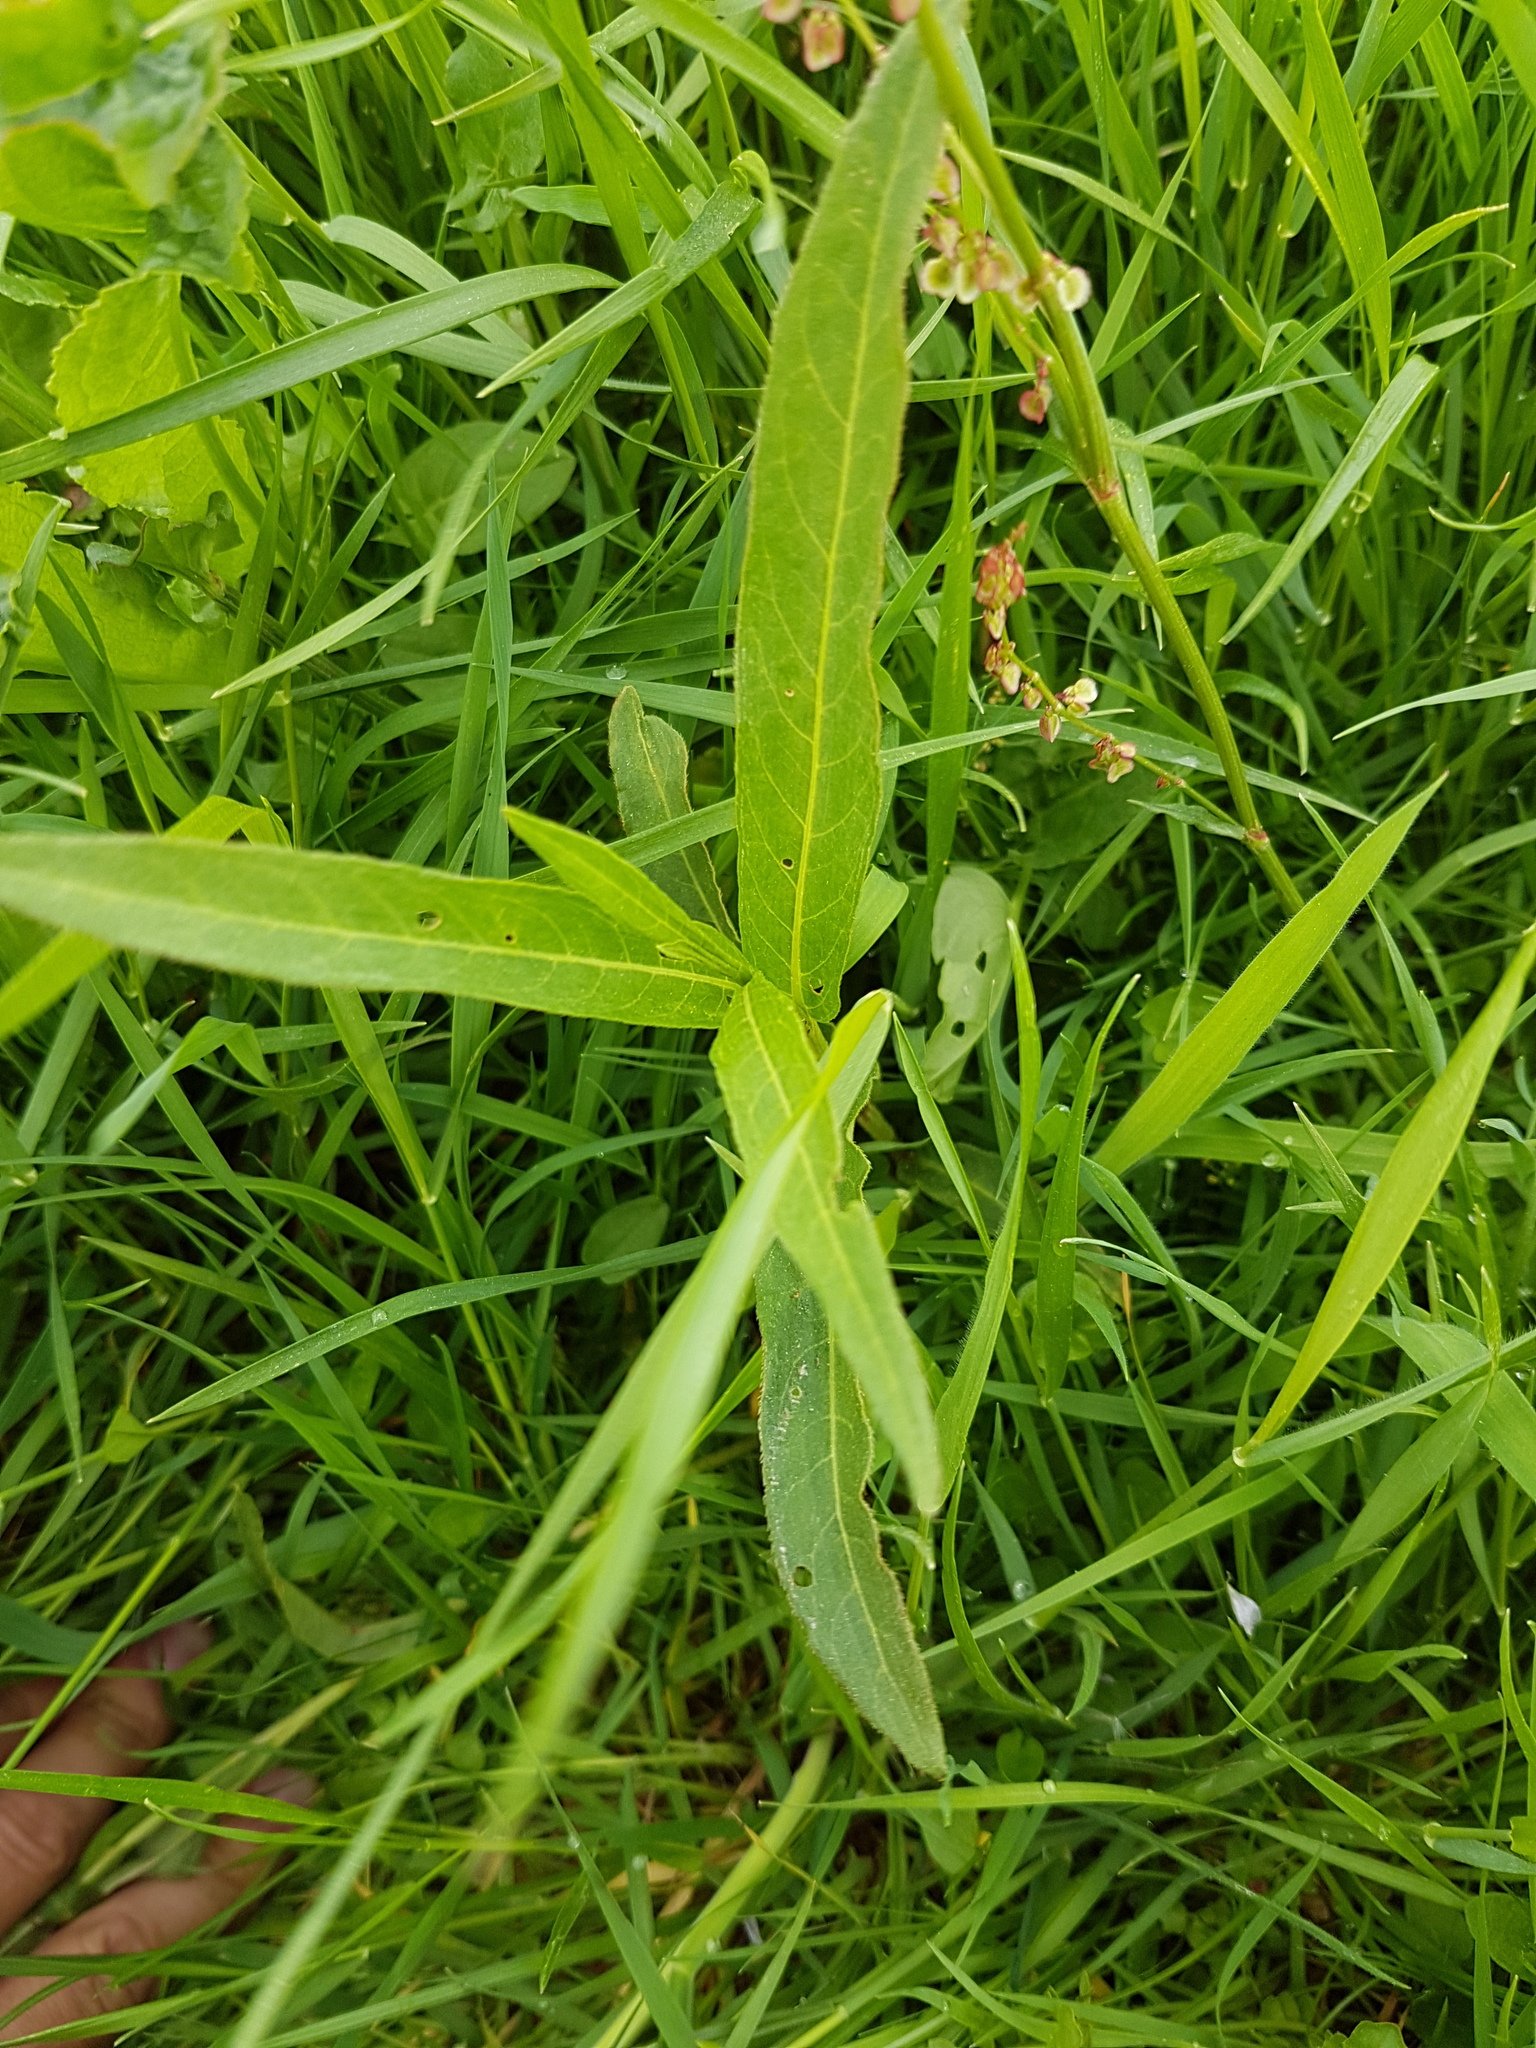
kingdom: Plantae
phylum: Tracheophyta
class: Magnoliopsida
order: Caryophyllales
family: Polygonaceae
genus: Persicaria
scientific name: Persicaria amphibia
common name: Amphibious bistort
